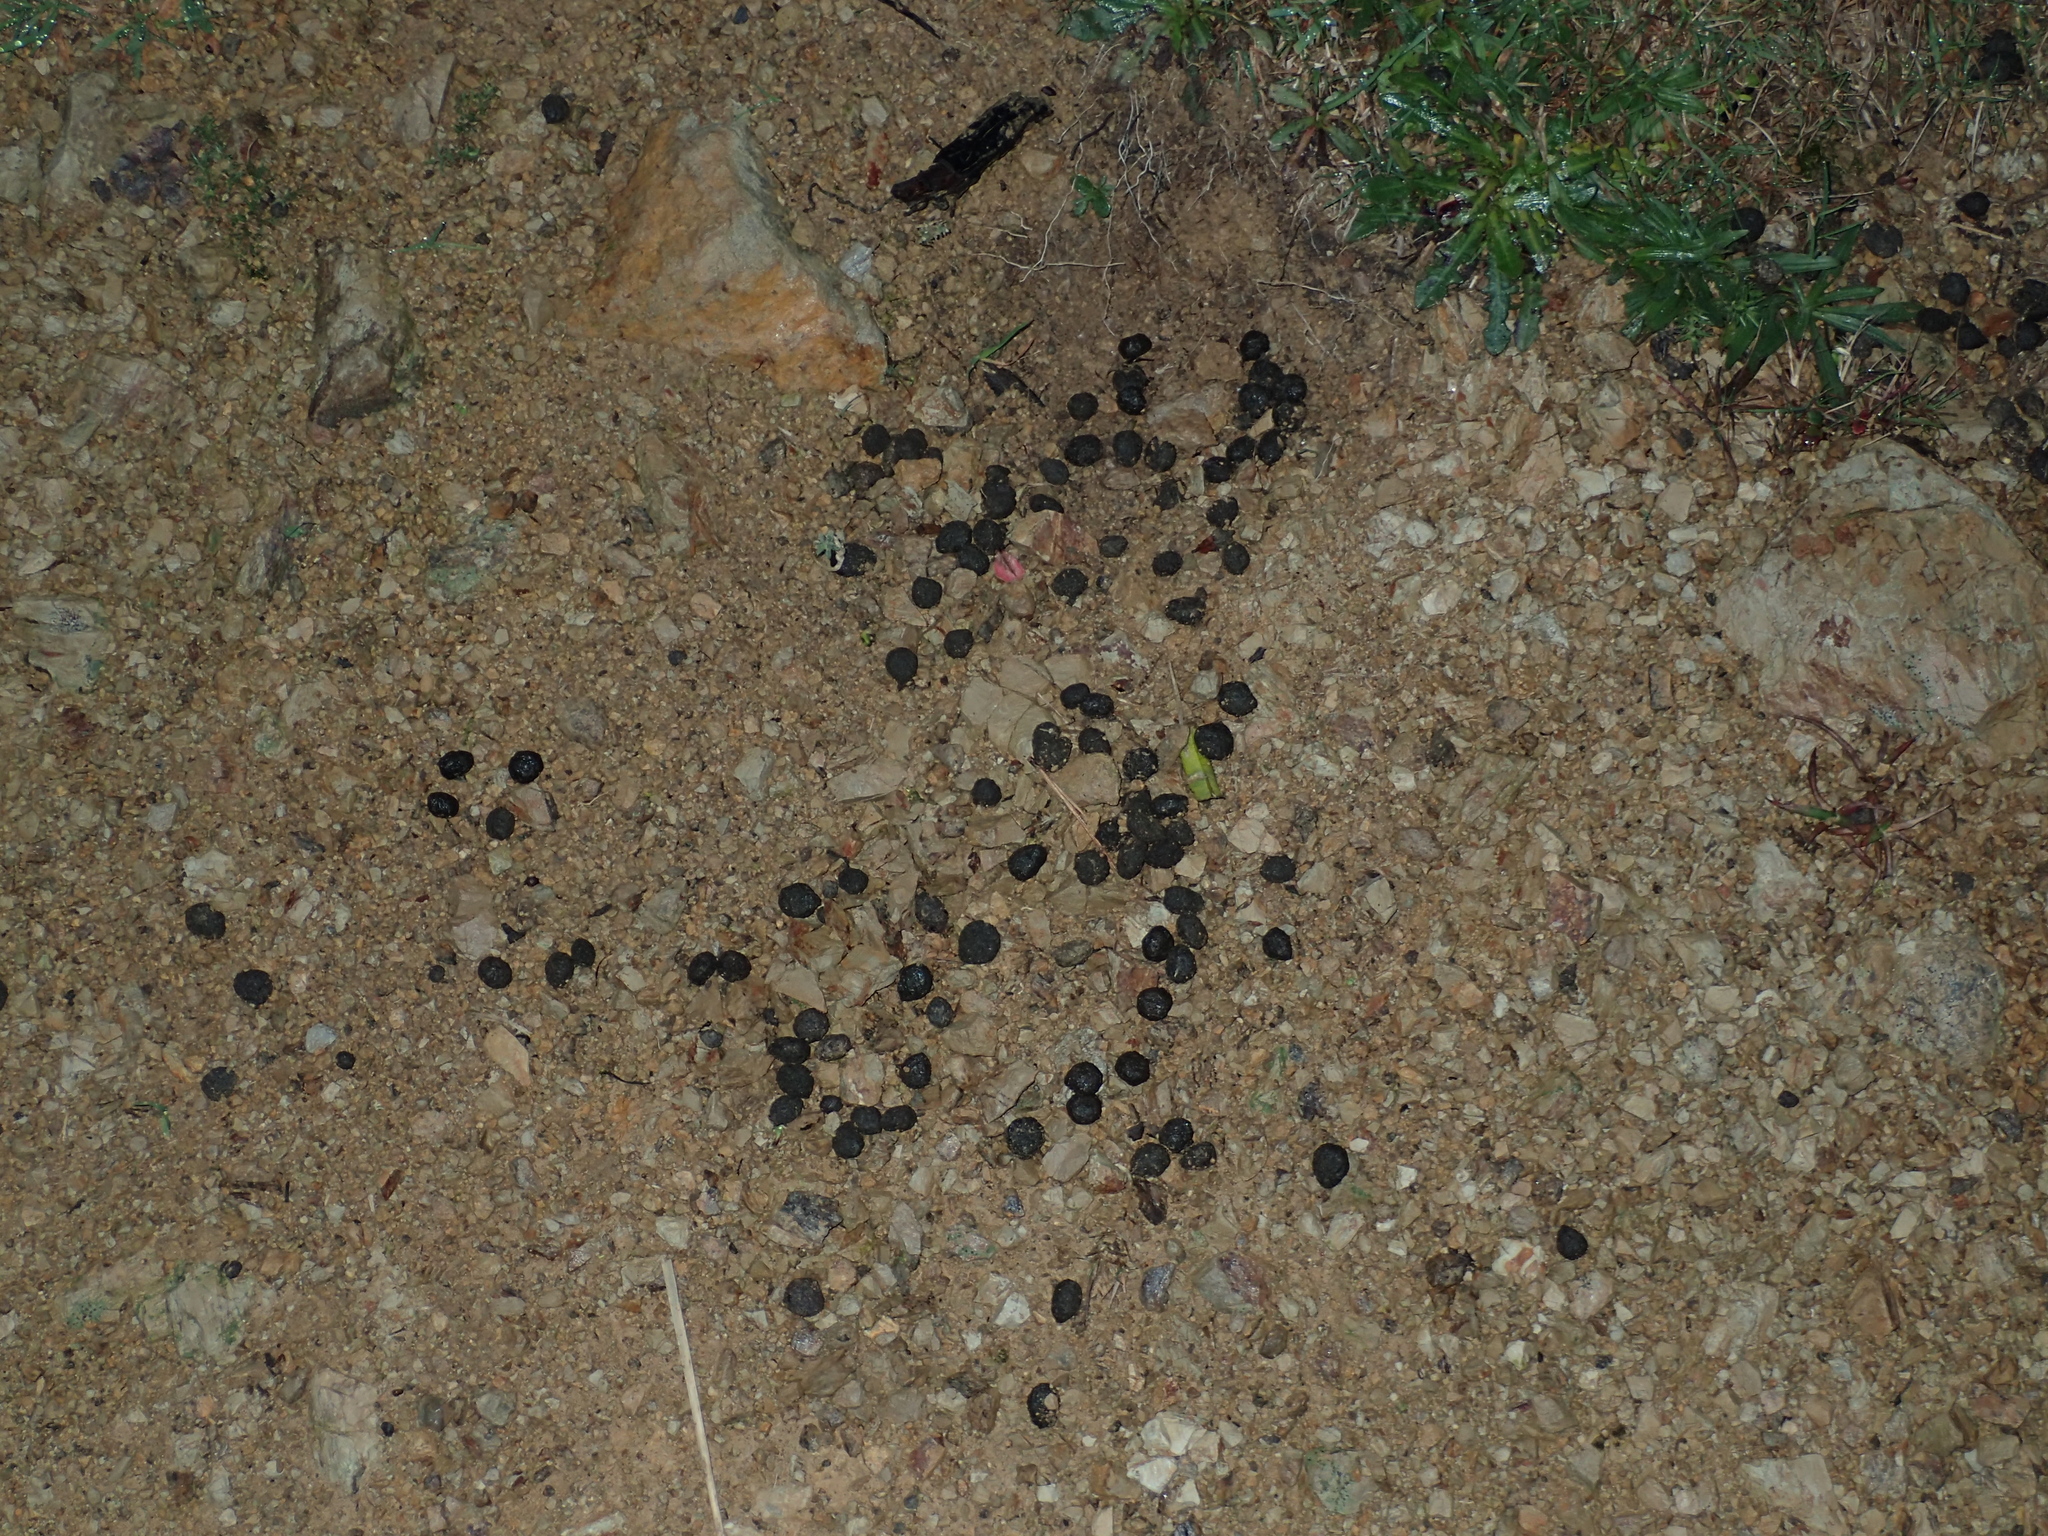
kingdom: Animalia
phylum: Chordata
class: Mammalia
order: Lagomorpha
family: Leporidae
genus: Oryctolagus
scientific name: Oryctolagus cuniculus
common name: European rabbit
